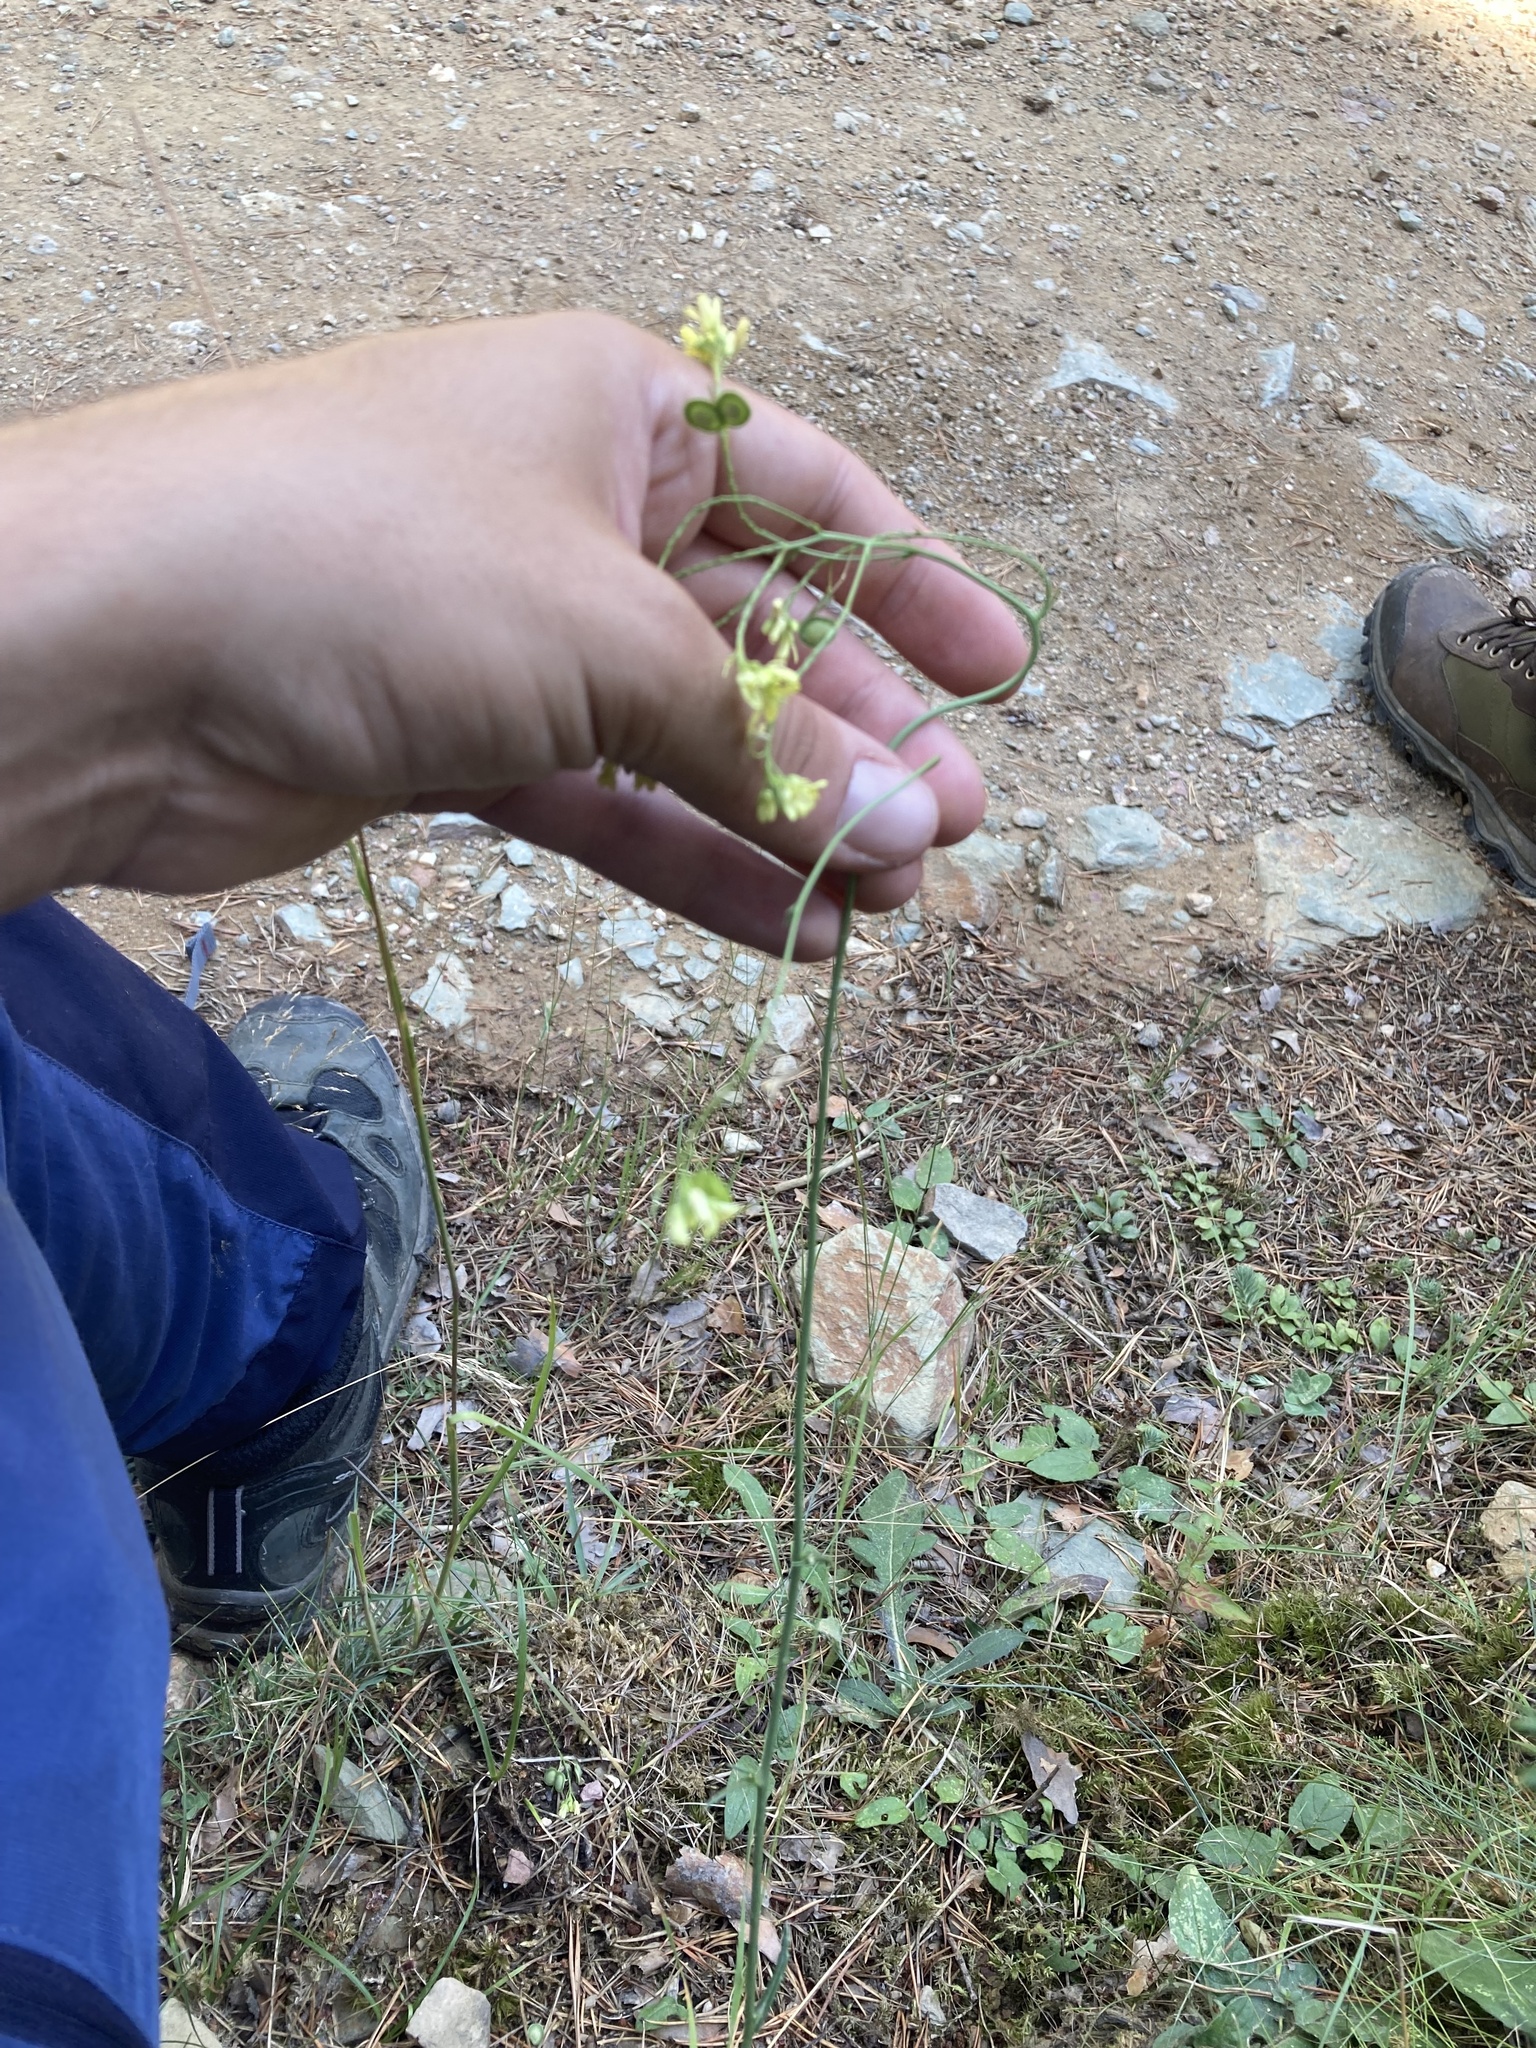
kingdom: Plantae
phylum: Tracheophyta
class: Magnoliopsida
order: Brassicales
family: Brassicaceae
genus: Biscutella
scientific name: Biscutella laevigata
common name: Buckler mustard
